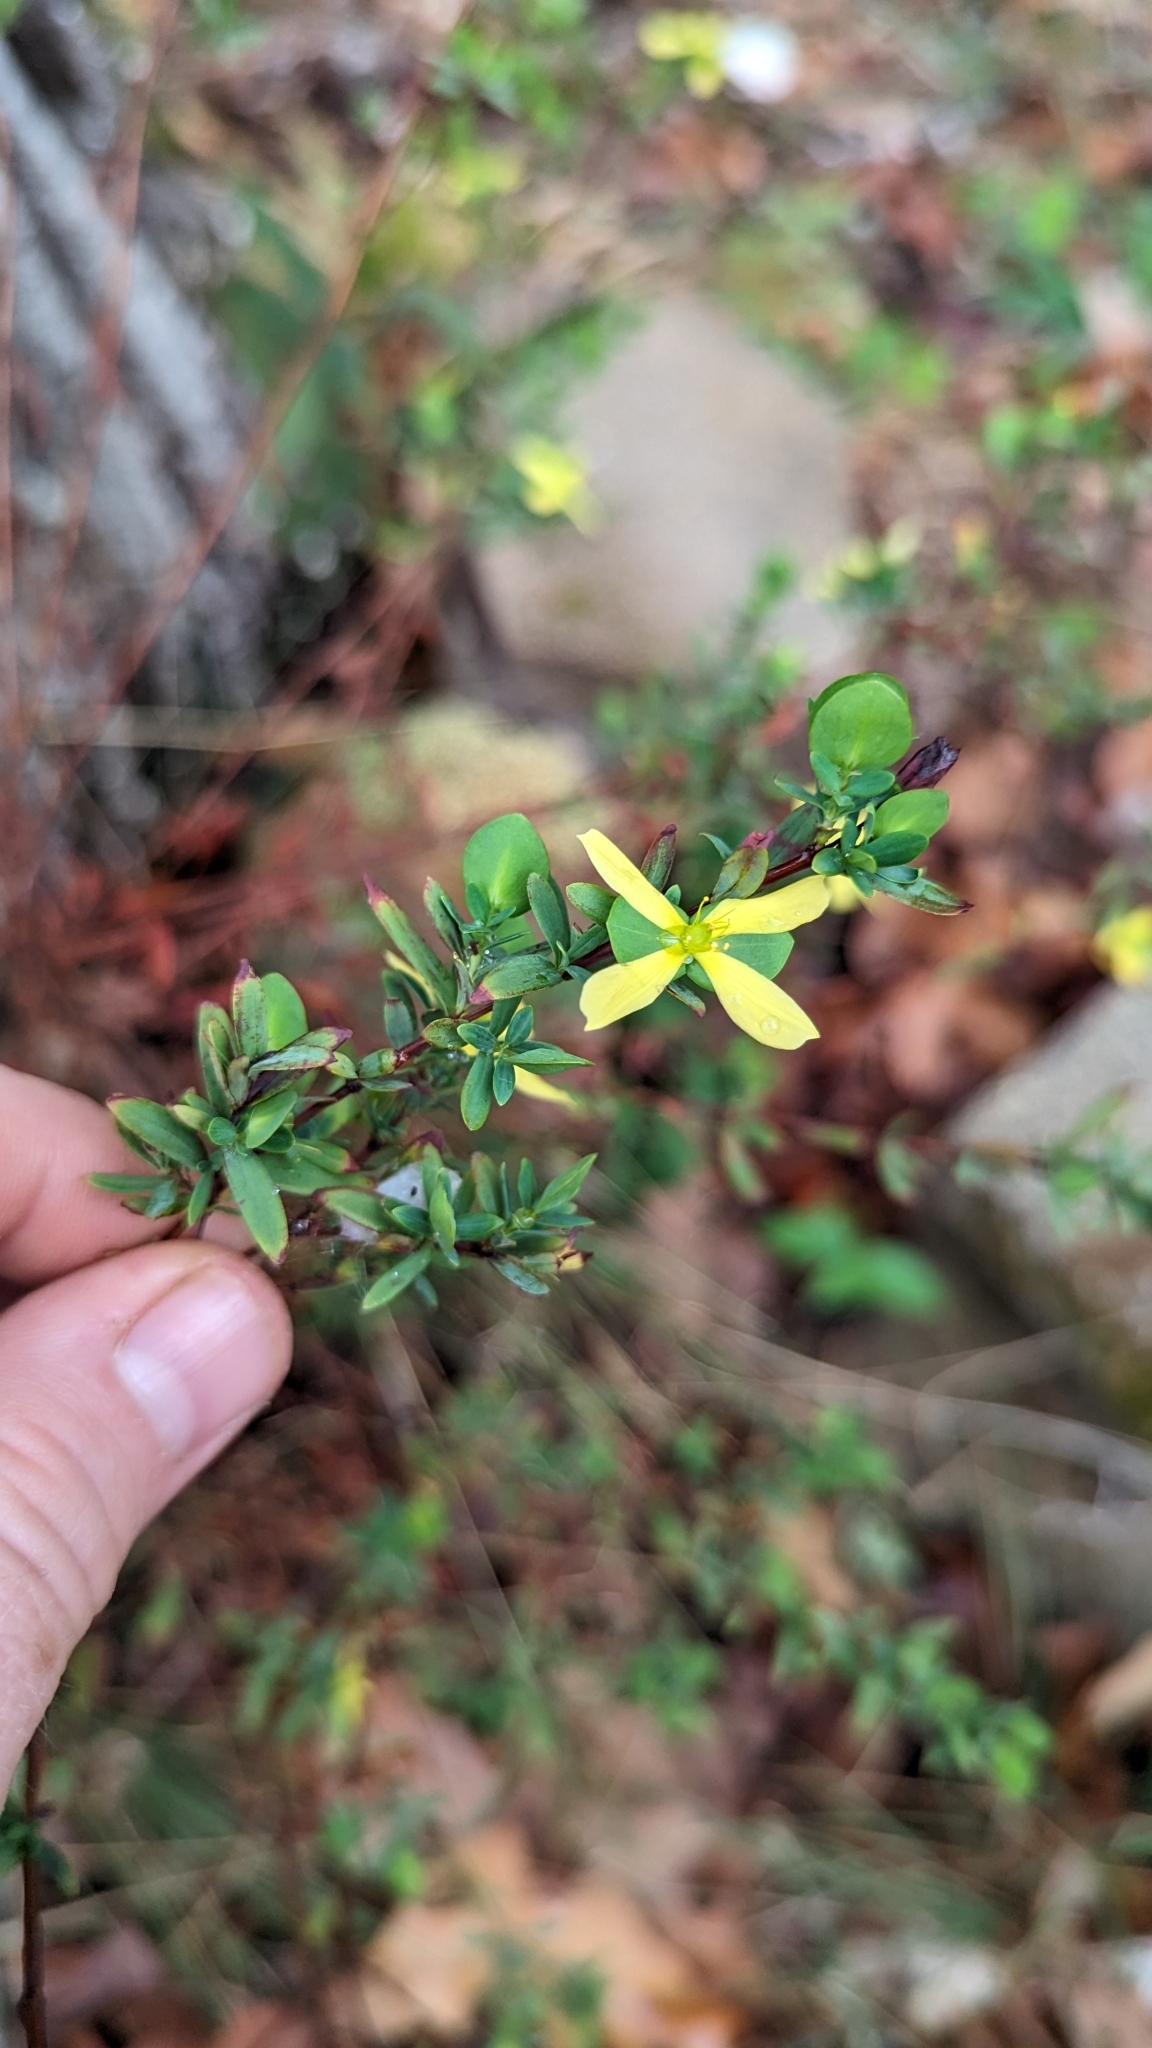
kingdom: Plantae
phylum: Tracheophyta
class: Magnoliopsida
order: Malpighiales
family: Hypericaceae
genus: Hypericum
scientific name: Hypericum hypericoides
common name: St. andrew's cross
